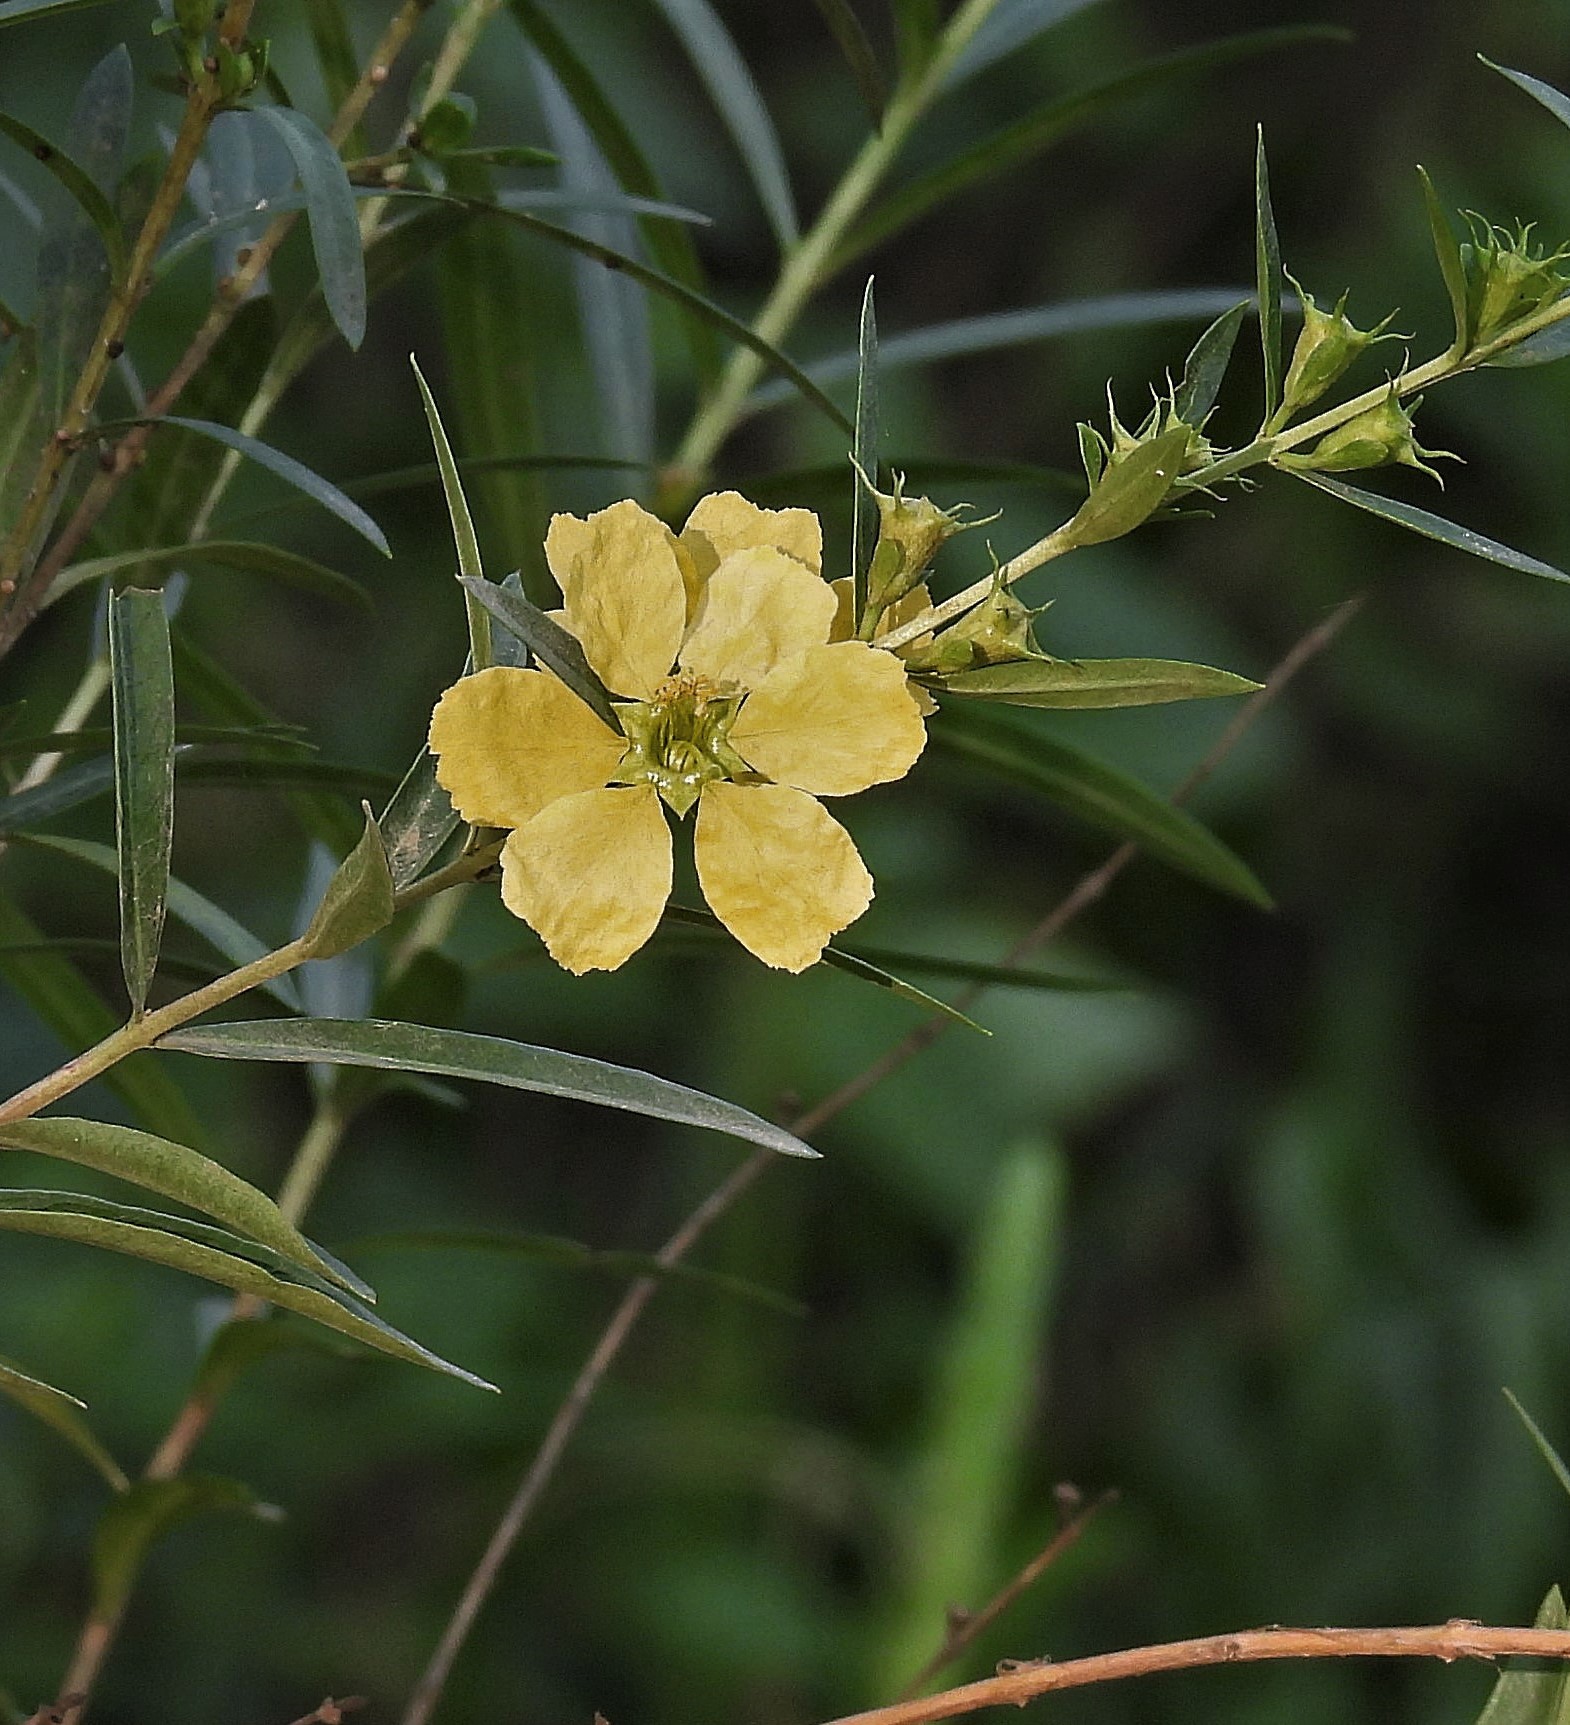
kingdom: Plantae
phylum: Tracheophyta
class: Magnoliopsida
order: Myrtales
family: Lythraceae
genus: Heimia
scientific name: Heimia salicifolia
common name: Willow-leaf heimia
